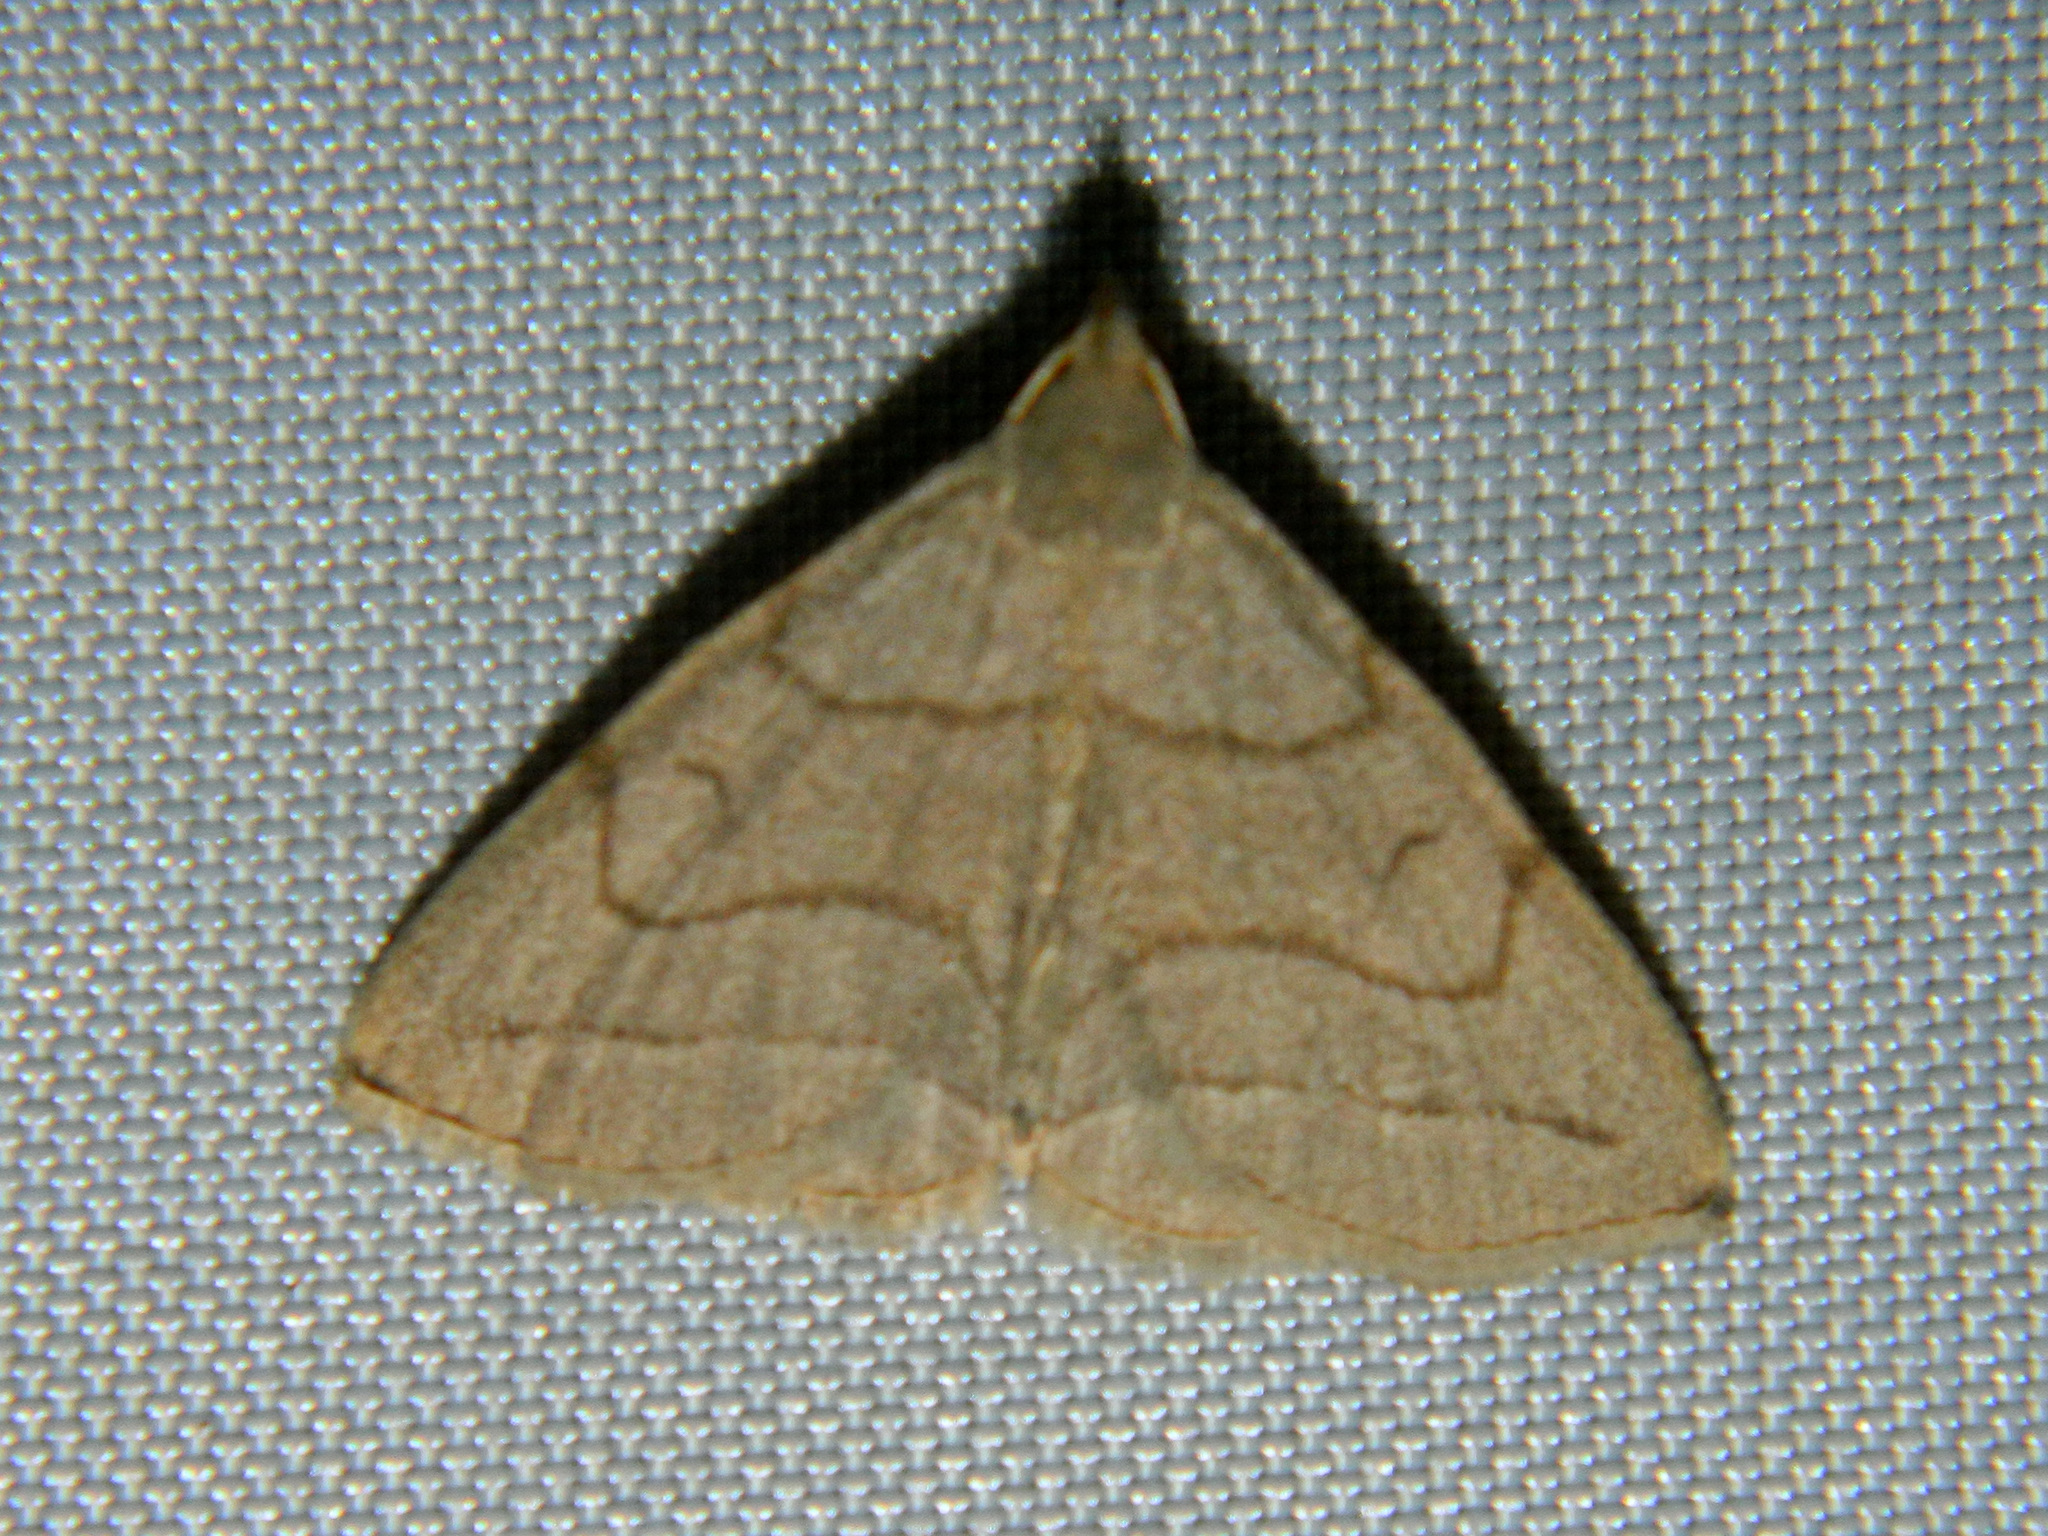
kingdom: Animalia
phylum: Arthropoda
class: Insecta
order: Lepidoptera
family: Erebidae
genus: Zanclognatha
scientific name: Zanclognatha pedipilalis
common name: Grayish fan-foot
